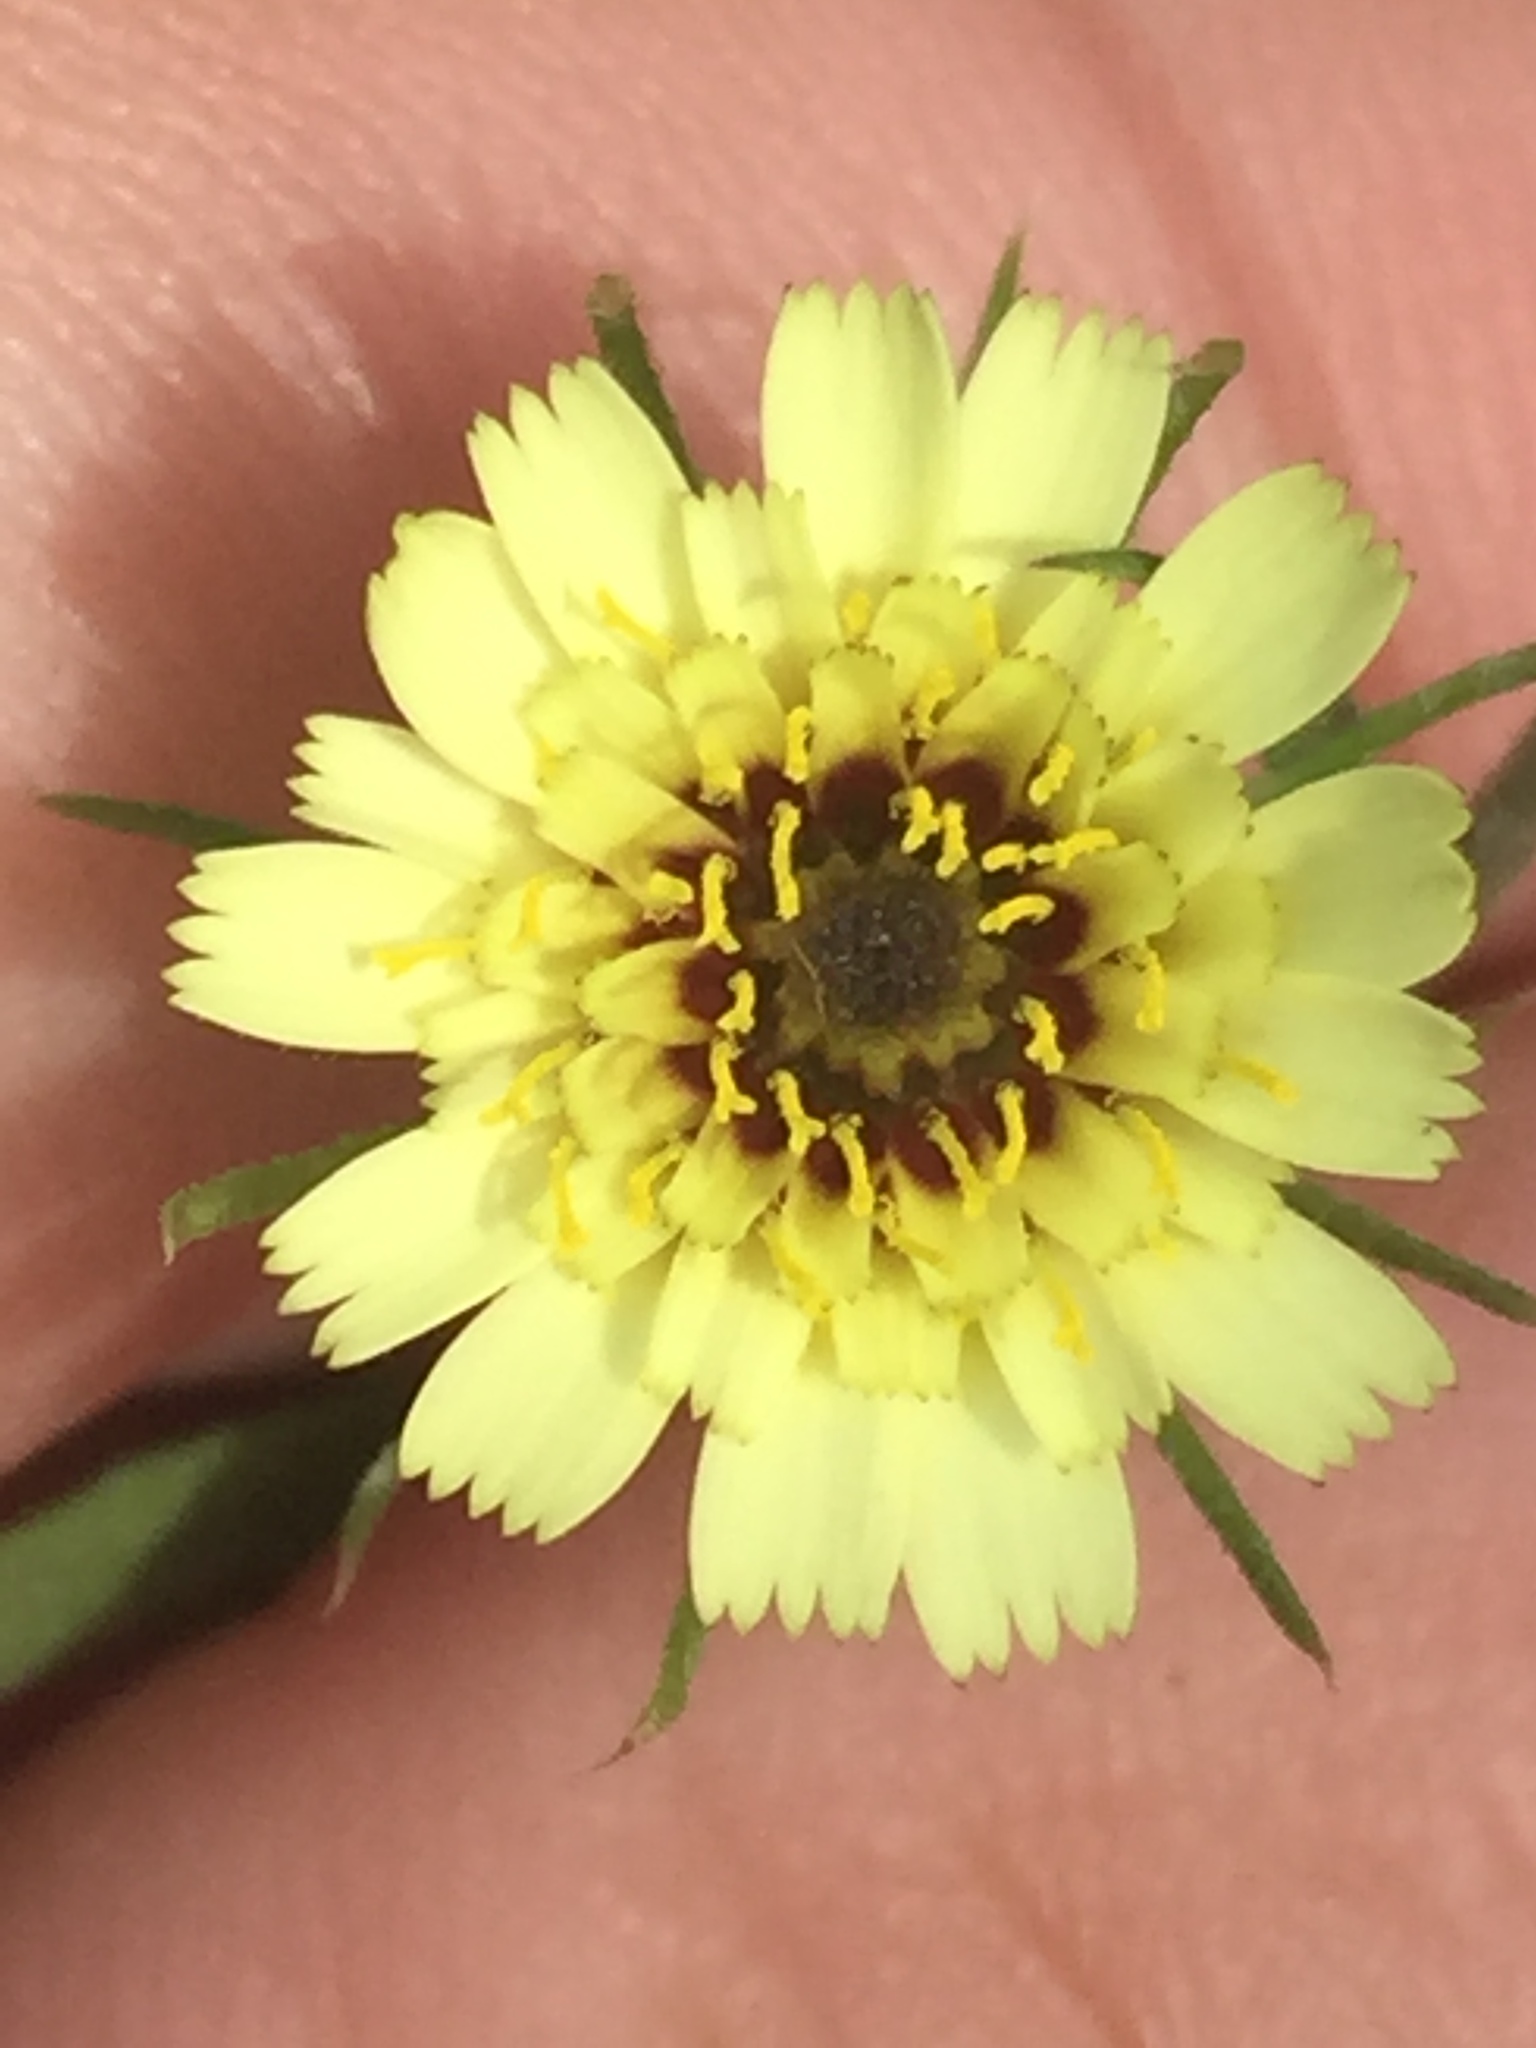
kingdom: Plantae
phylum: Tracheophyta
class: Magnoliopsida
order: Asterales
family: Asteraceae
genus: Tolpis
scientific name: Tolpis barbata
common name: Yellow hawkweed
